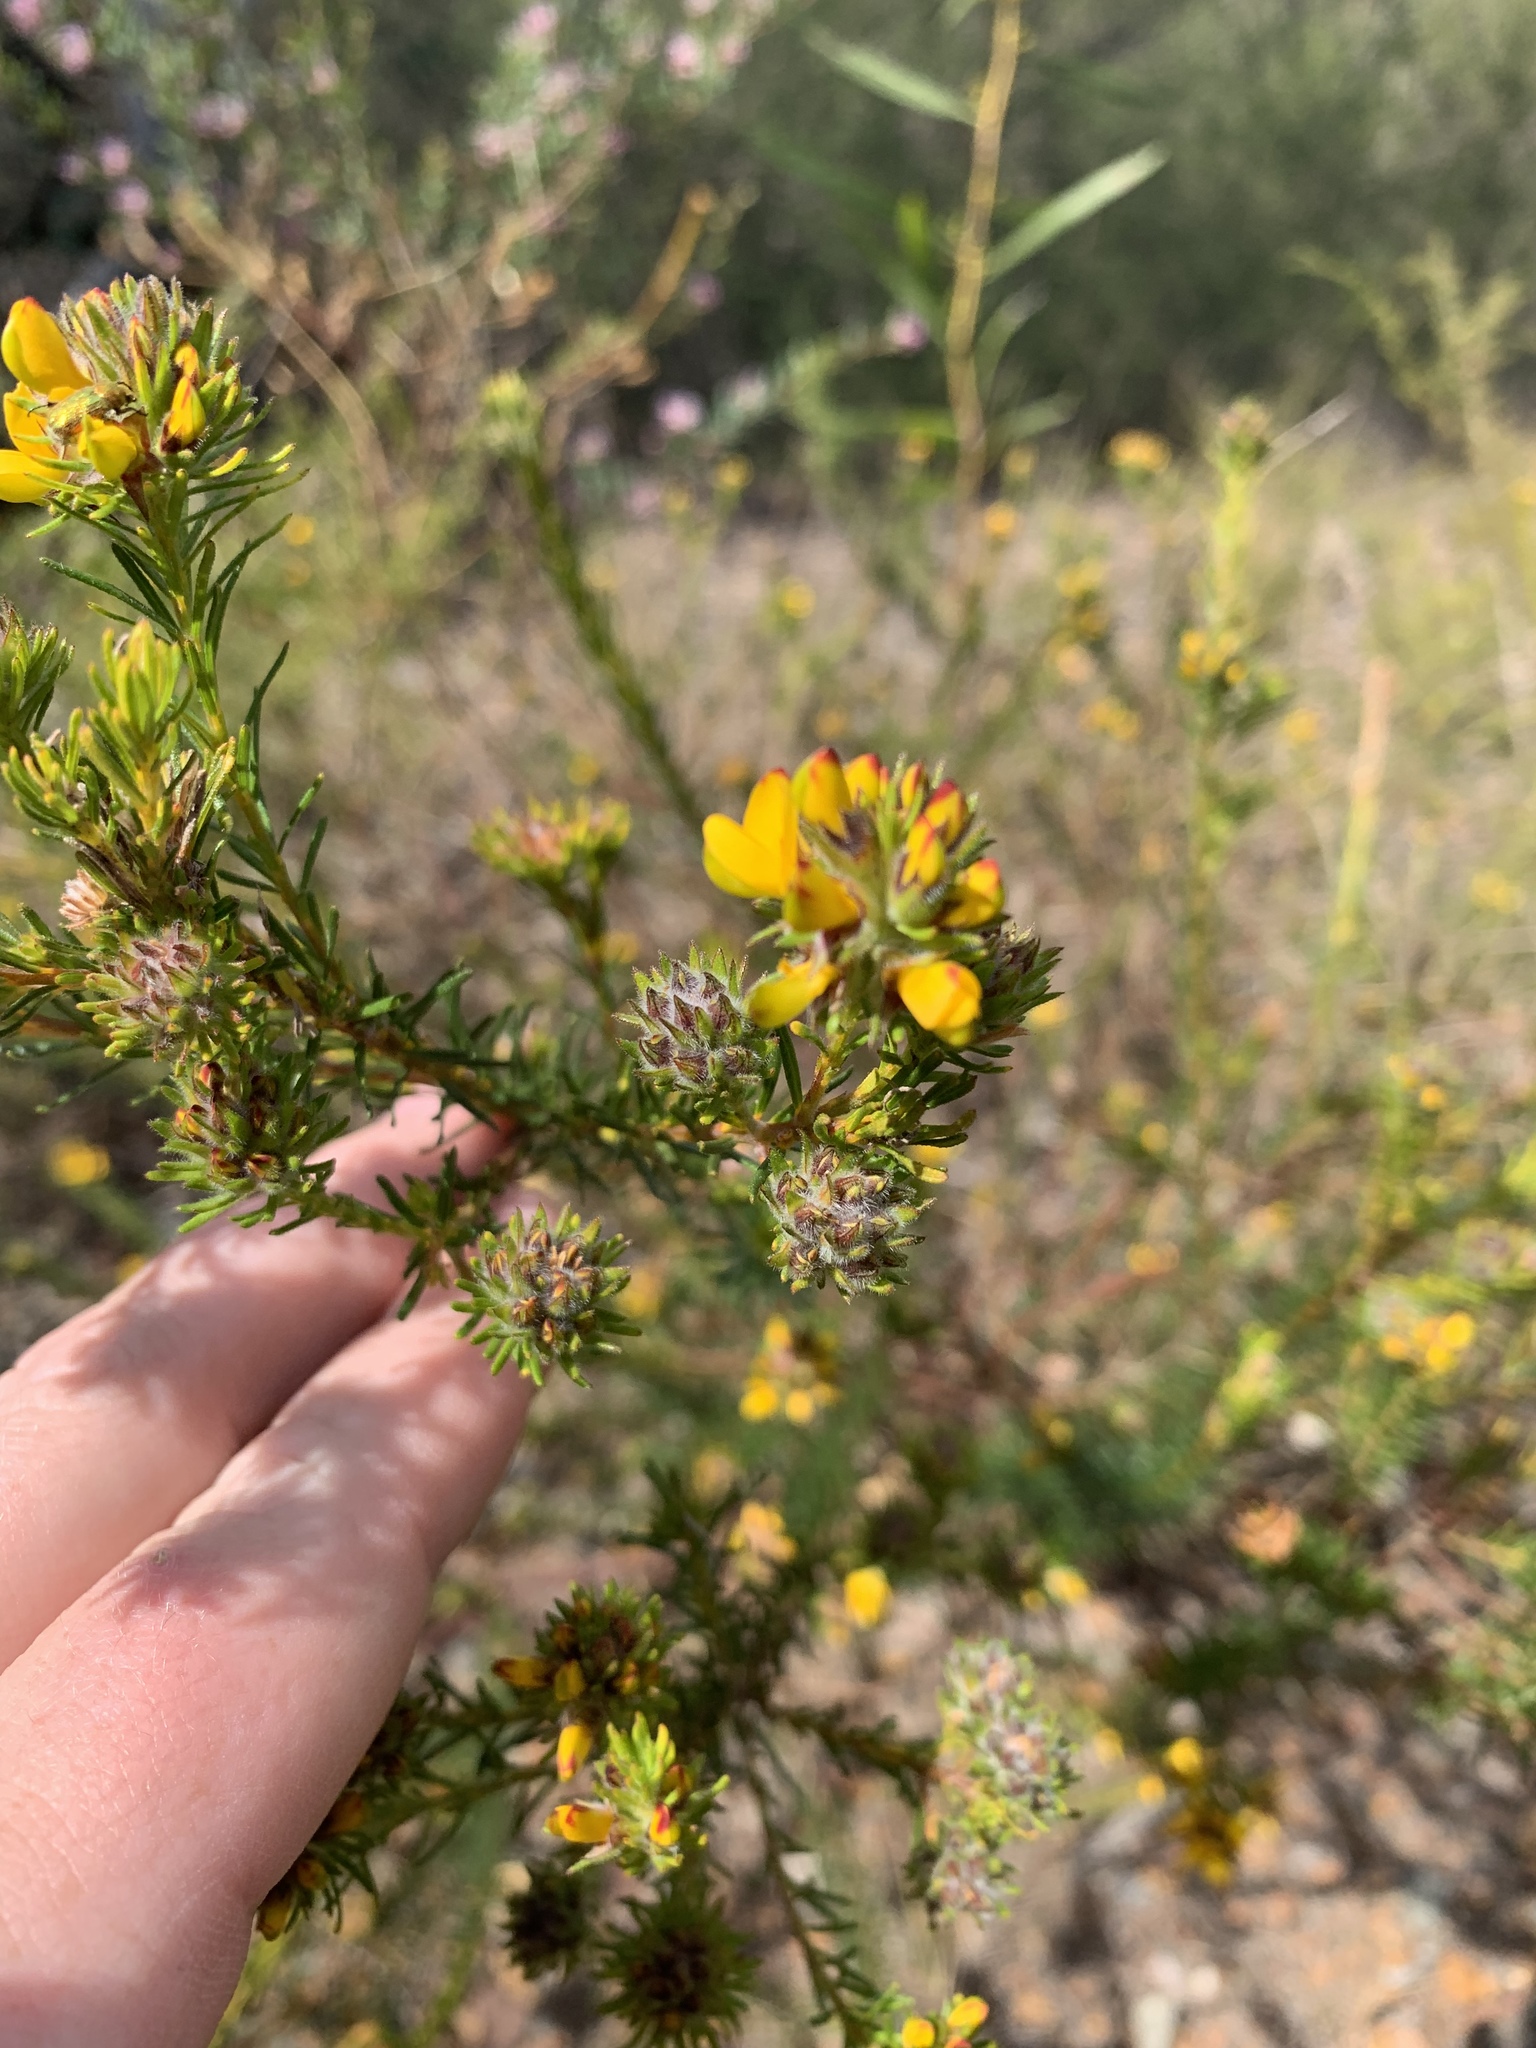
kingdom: Plantae
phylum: Tracheophyta
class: Magnoliopsida
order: Fabales
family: Fabaceae
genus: Phyllota
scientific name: Phyllota phylicoides
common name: Heath phyllota
